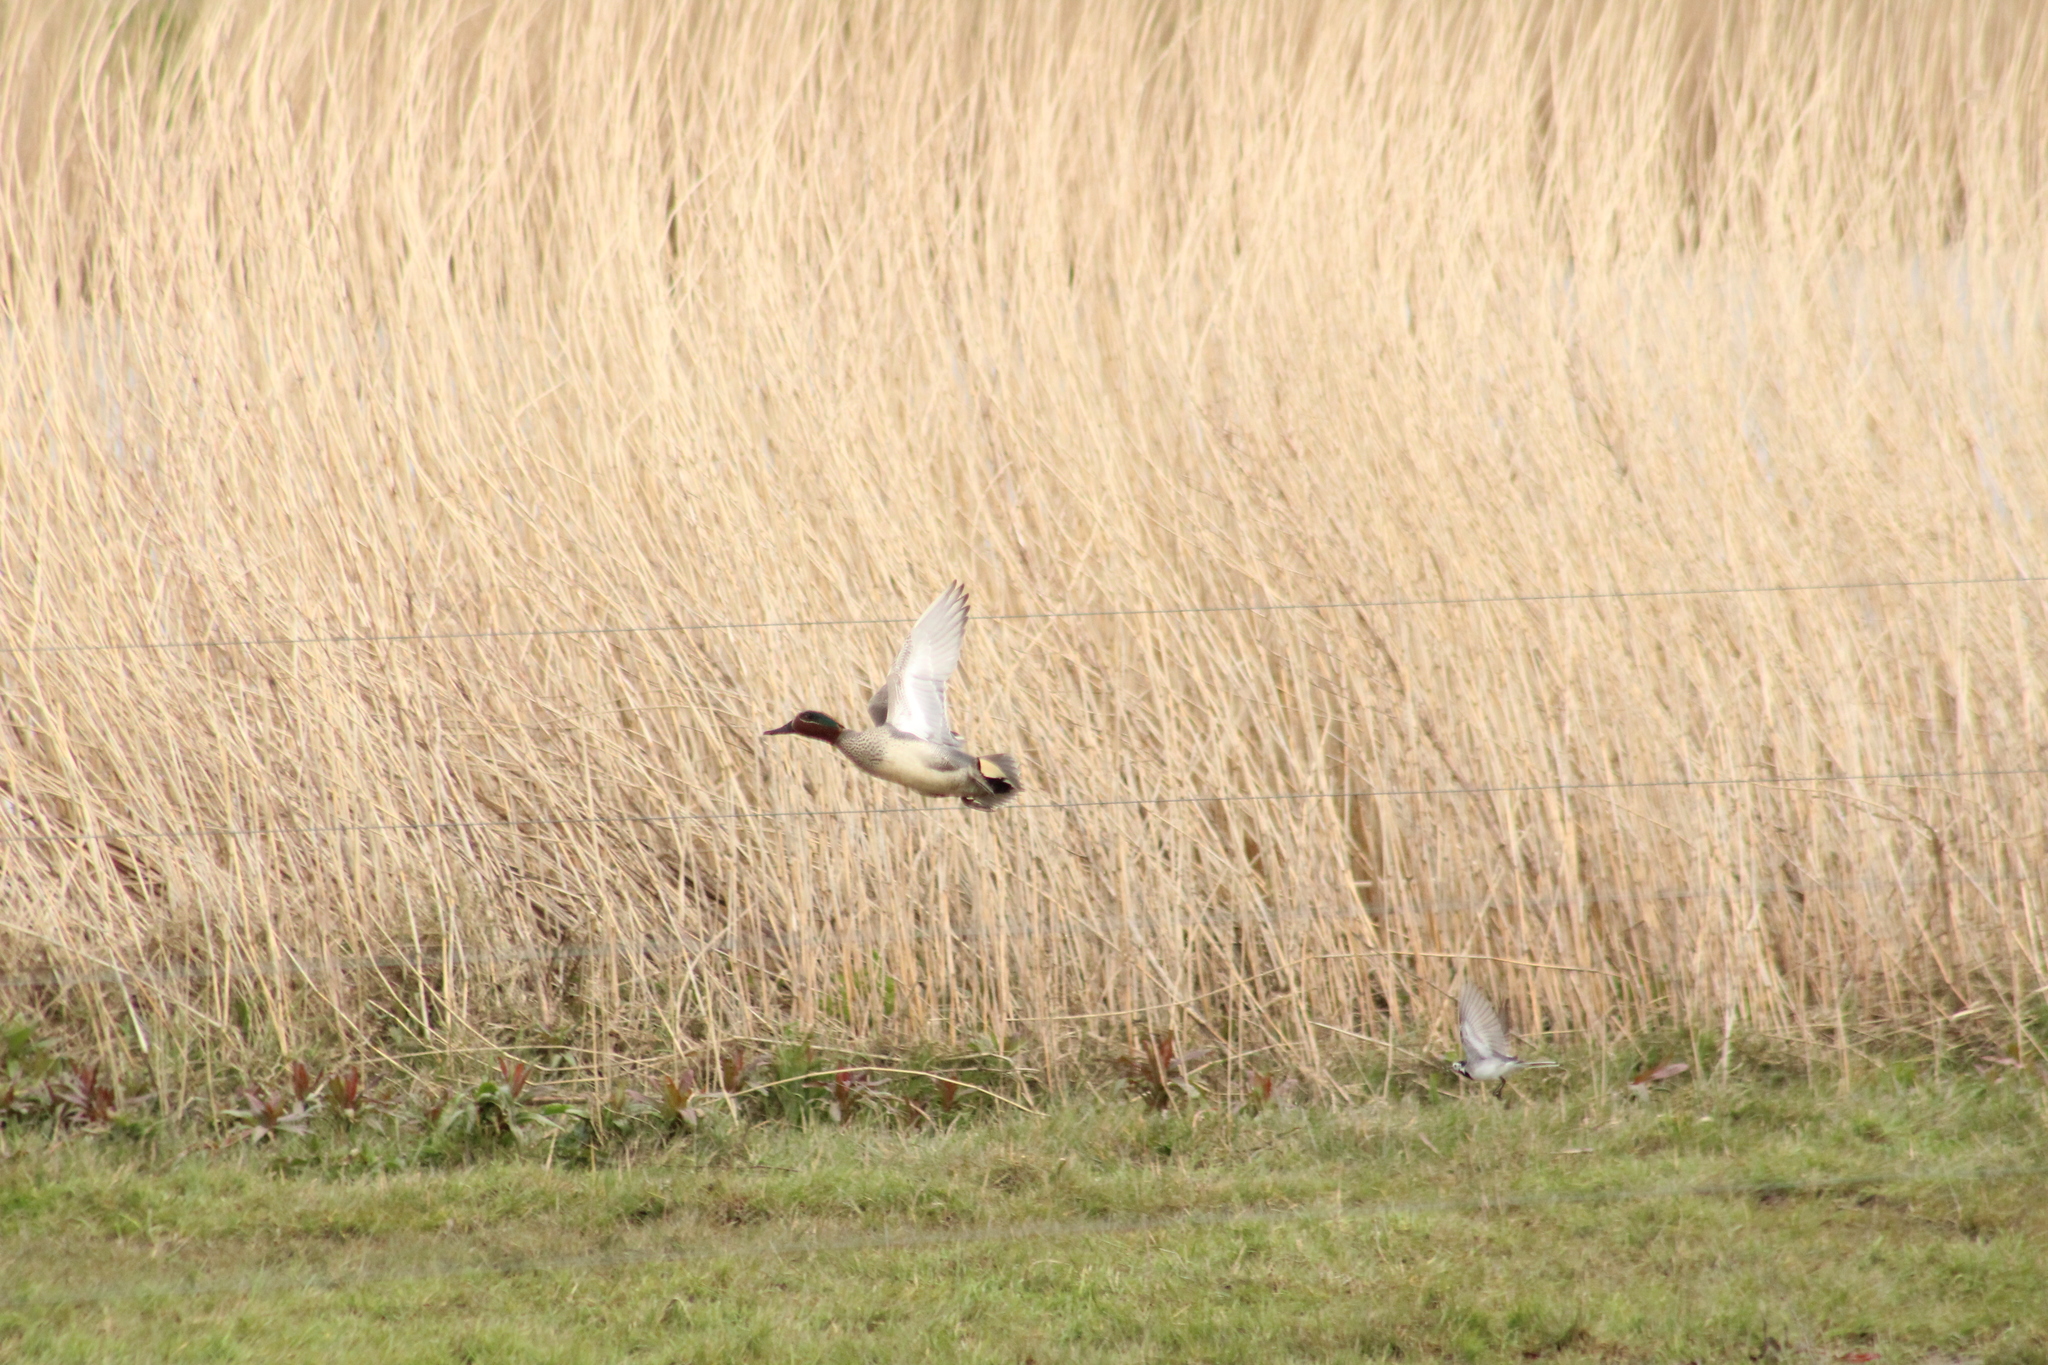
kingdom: Animalia
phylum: Chordata
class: Aves
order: Anseriformes
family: Anatidae
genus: Anas
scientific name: Anas crecca
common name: Eurasian teal
